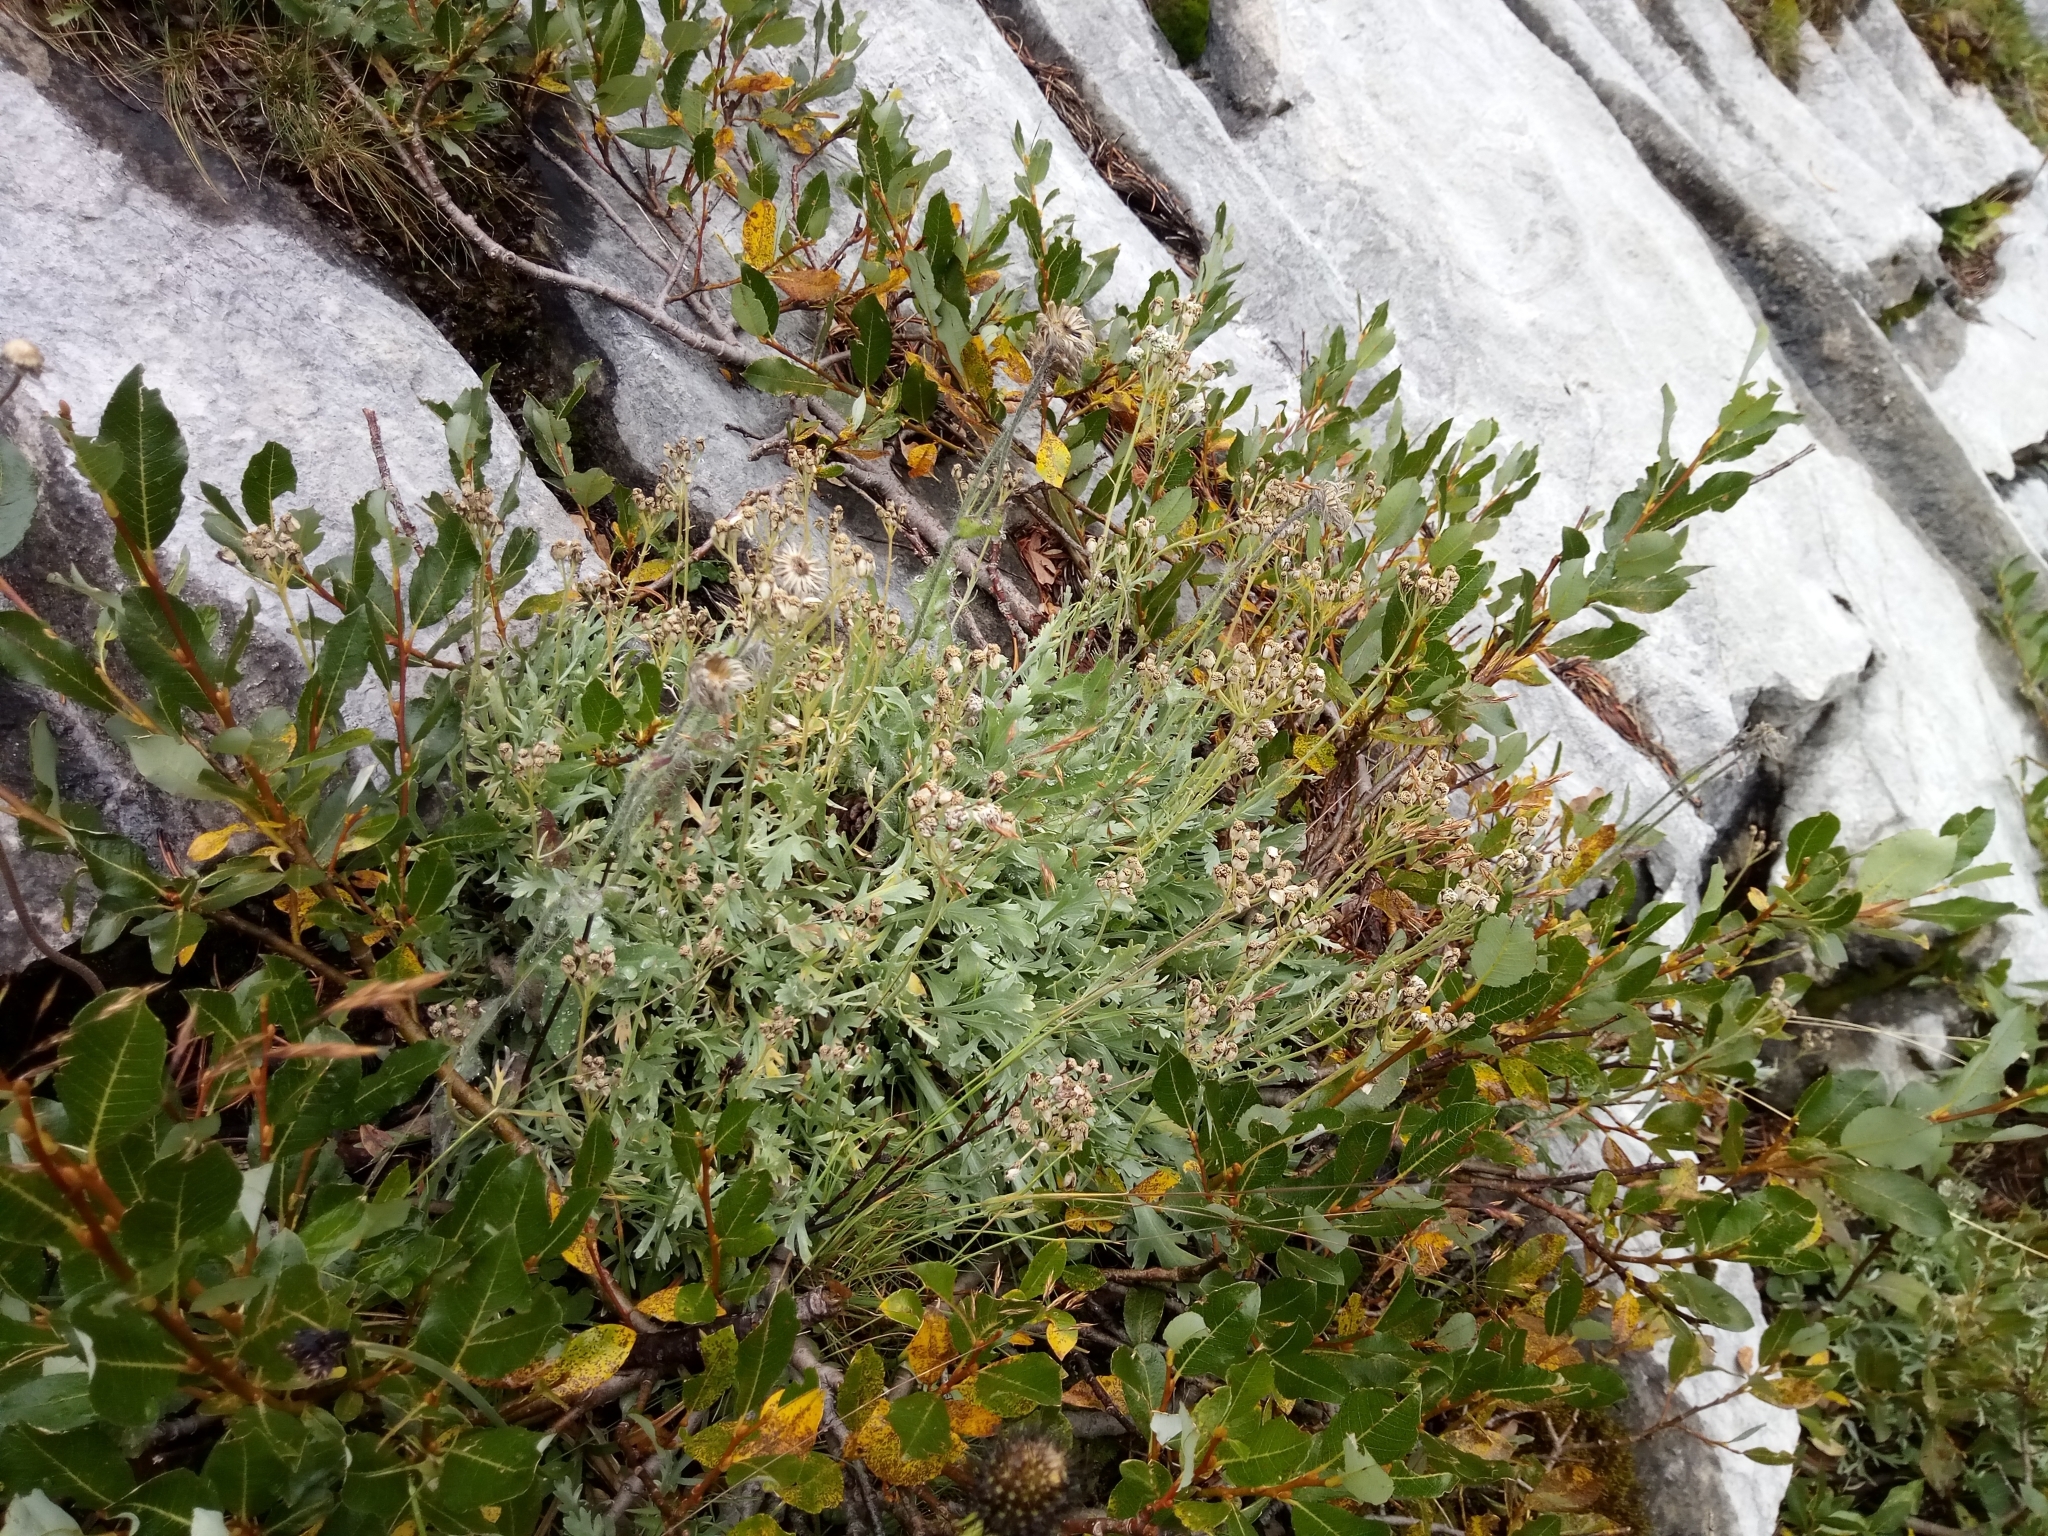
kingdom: Plantae
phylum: Tracheophyta
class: Magnoliopsida
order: Asterales
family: Asteraceae
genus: Achillea
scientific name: Achillea clavennae
